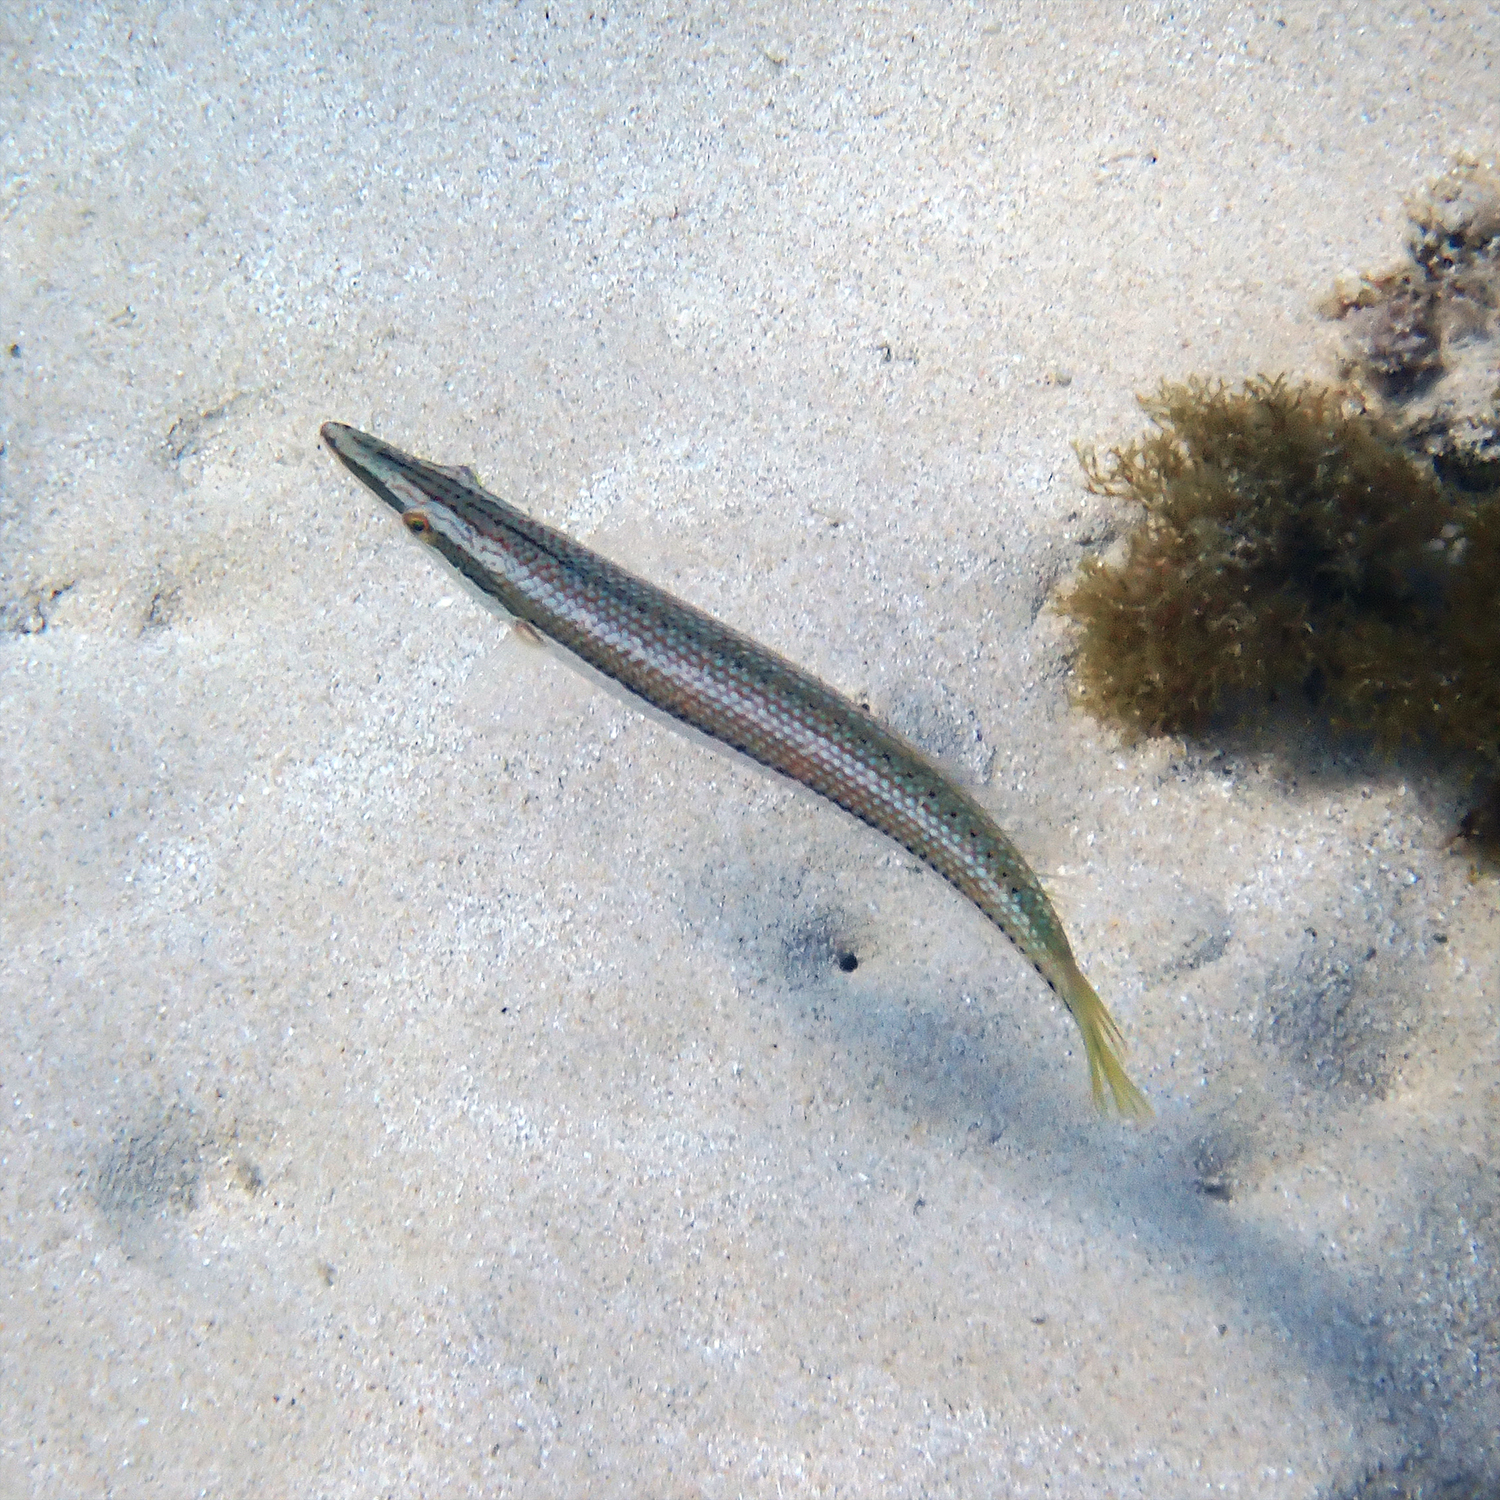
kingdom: Animalia
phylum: Chordata
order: Perciformes
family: Labridae
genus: Cheilio
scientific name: Cheilio inermis
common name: Cigar wrasse
